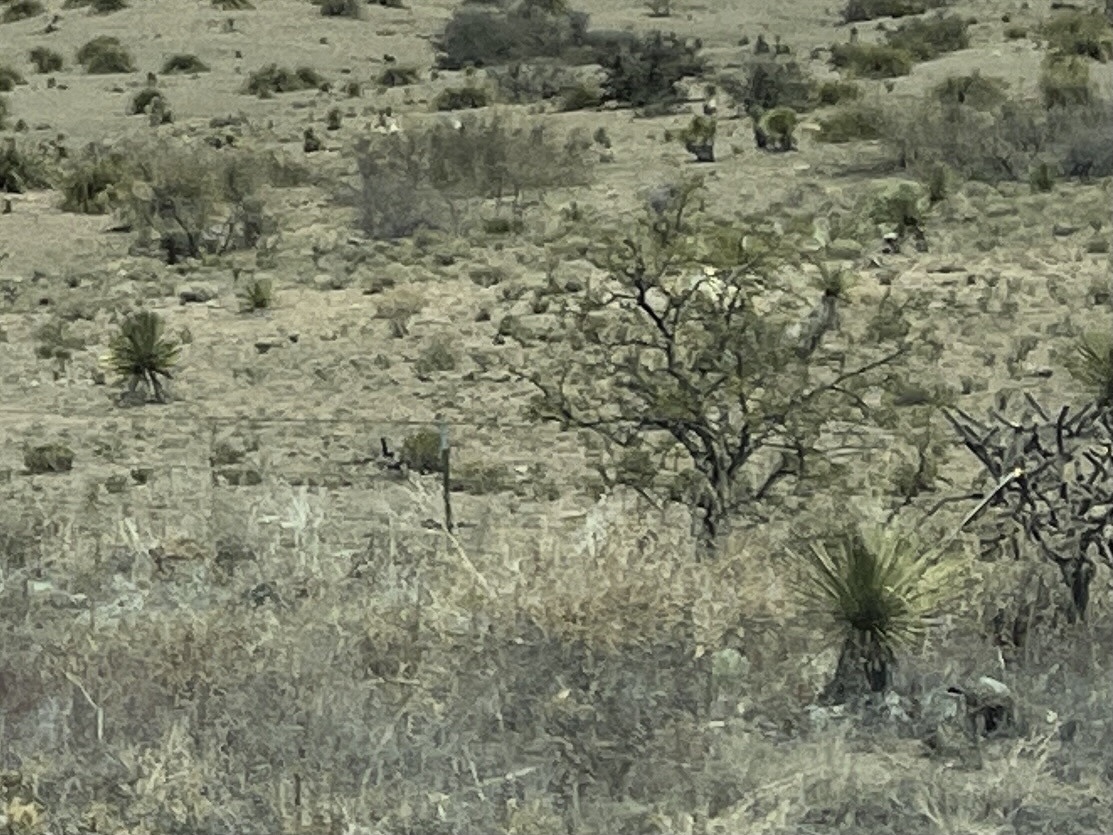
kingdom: Plantae
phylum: Tracheophyta
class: Liliopsida
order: Asparagales
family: Asparagaceae
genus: Yucca
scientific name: Yucca elata
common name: Palmella
